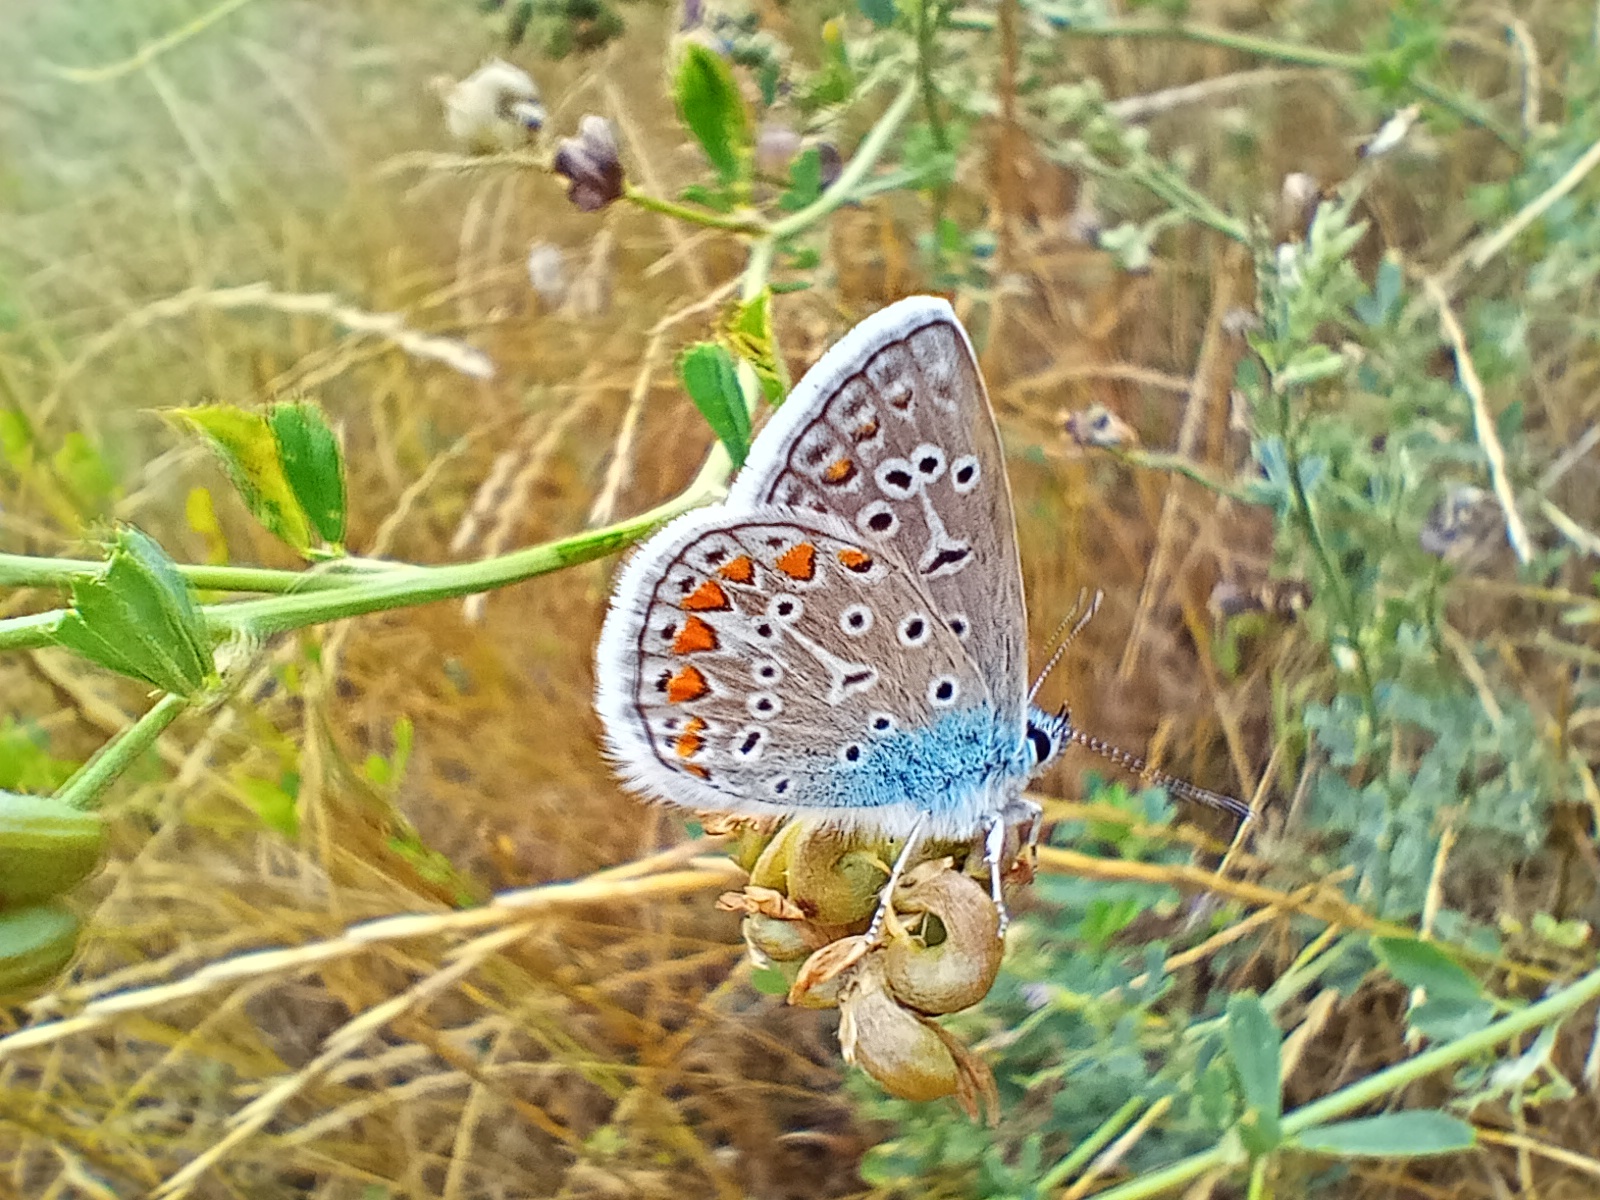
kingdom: Animalia
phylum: Arthropoda
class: Insecta
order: Lepidoptera
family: Lycaenidae
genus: Polyommatus
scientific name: Polyommatus icarus
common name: Common blue
